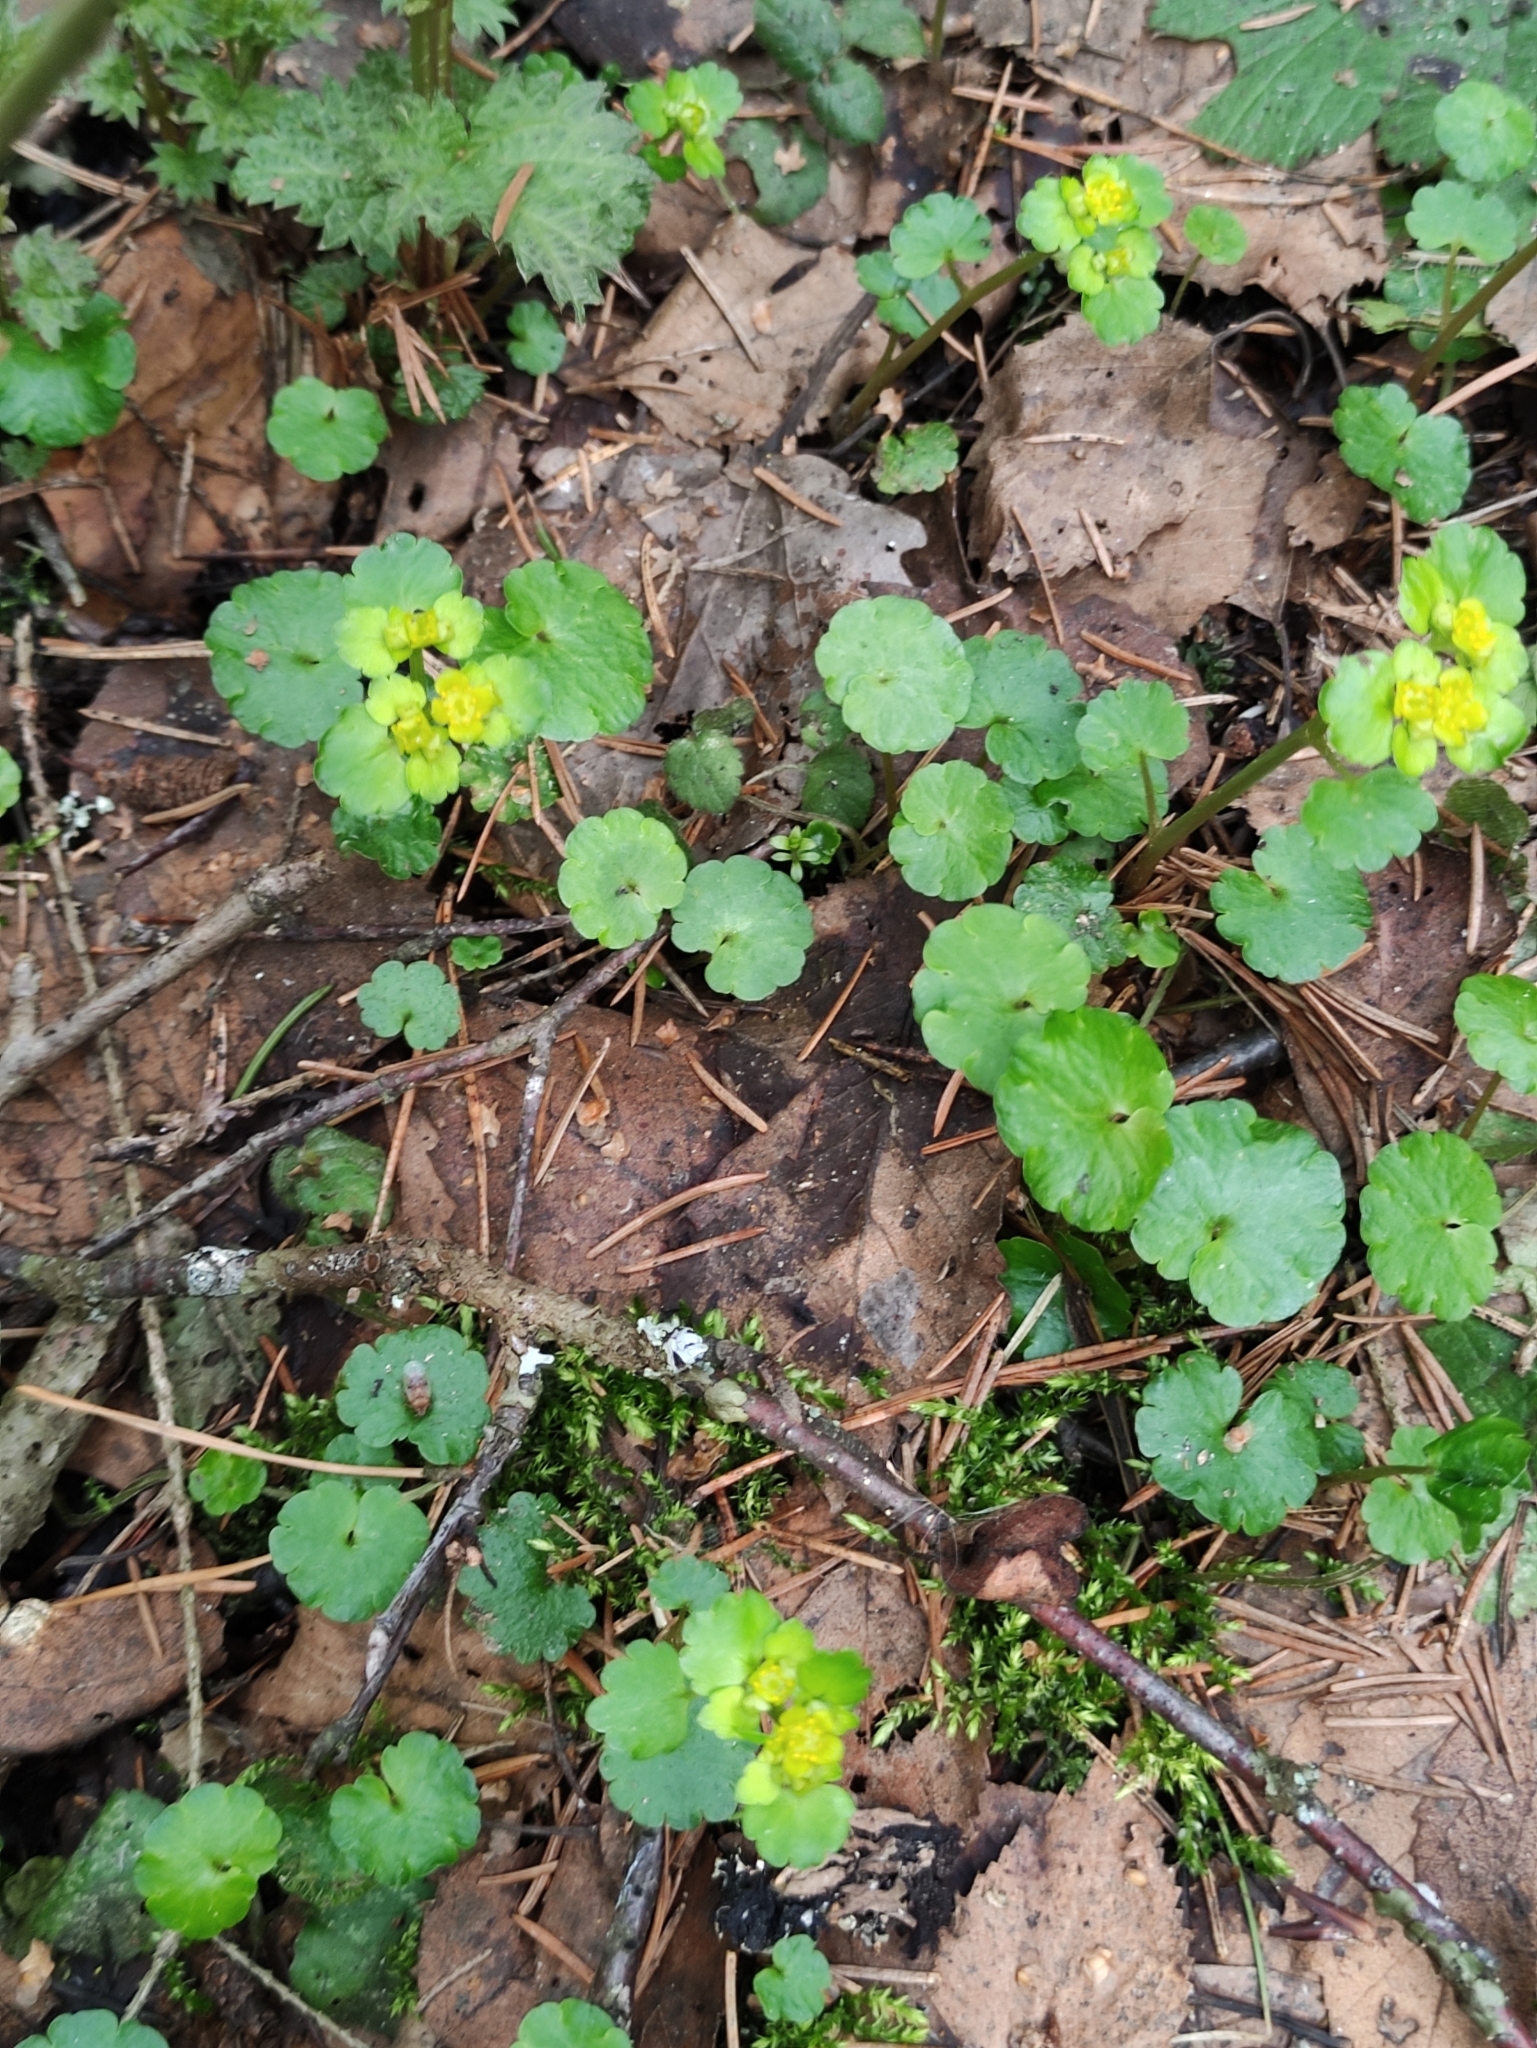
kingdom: Plantae
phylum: Tracheophyta
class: Magnoliopsida
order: Saxifragales
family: Saxifragaceae
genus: Chrysosplenium
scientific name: Chrysosplenium alternifolium
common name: Alternate-leaved golden-saxifrage
